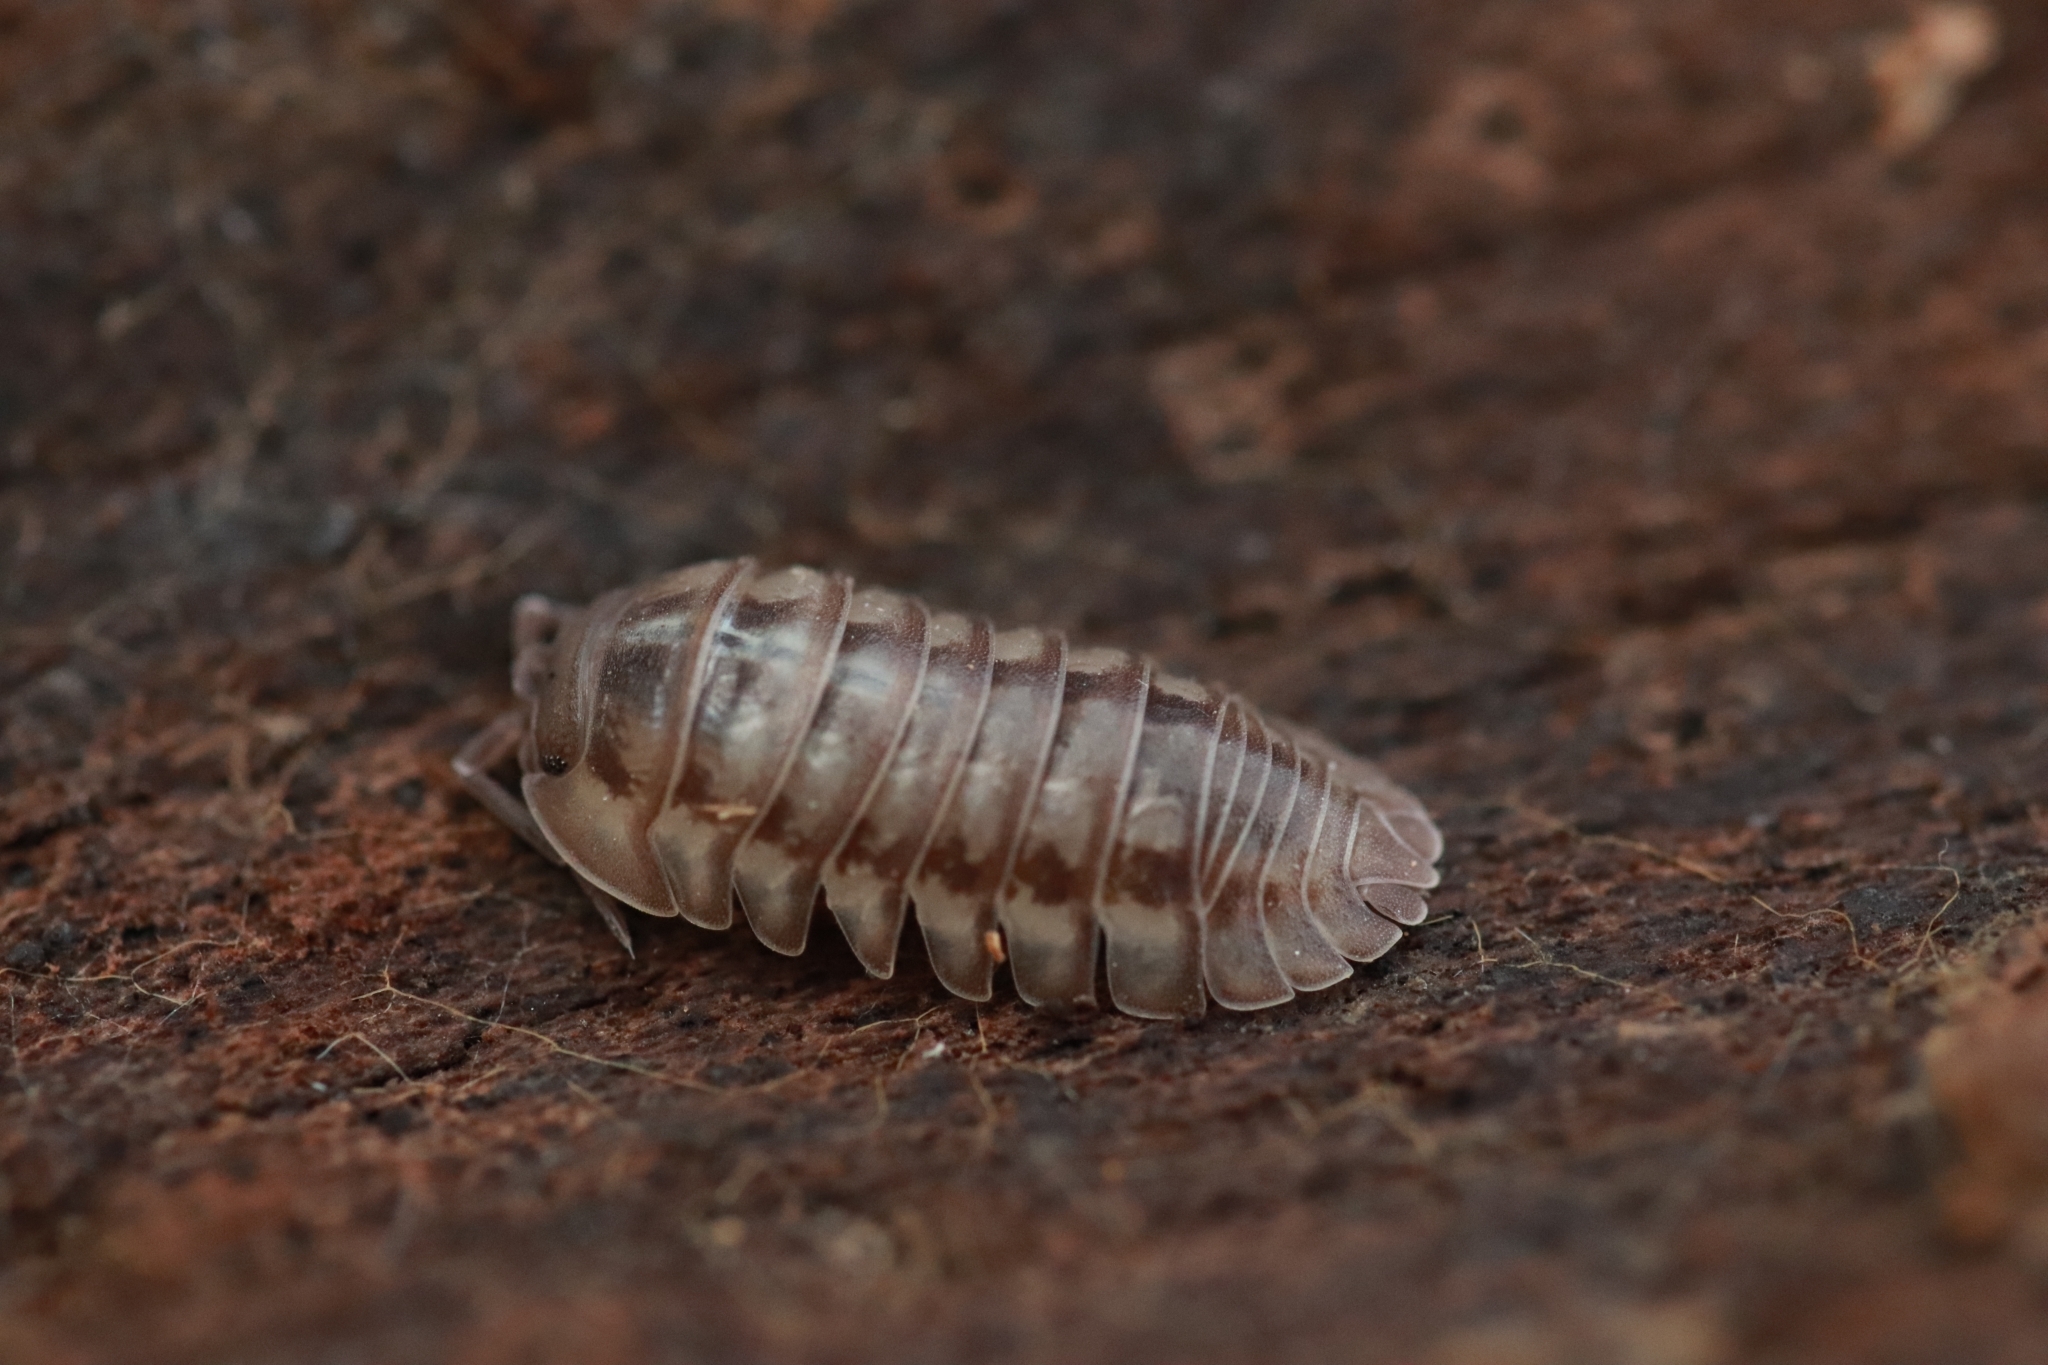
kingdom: Animalia
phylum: Arthropoda
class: Malacostraca
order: Isopoda
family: Armadillidiidae
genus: Armadillidium
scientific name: Armadillidium nasatum
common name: Isopod
